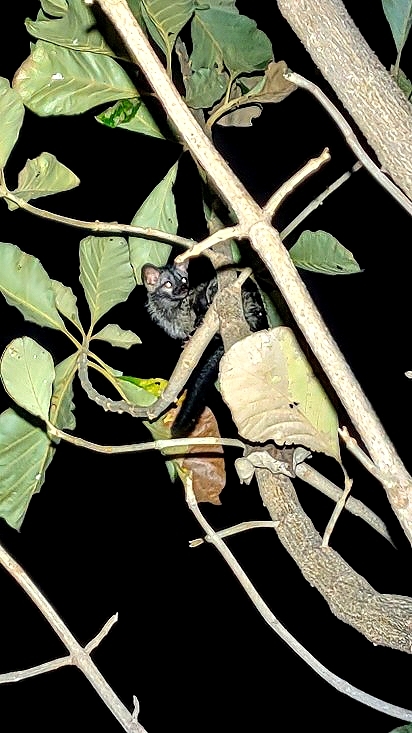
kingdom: Animalia
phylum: Chordata
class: Mammalia
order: Carnivora
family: Viverridae
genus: Paradoxurus
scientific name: Paradoxurus hermaphroditus
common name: Common palm civet
